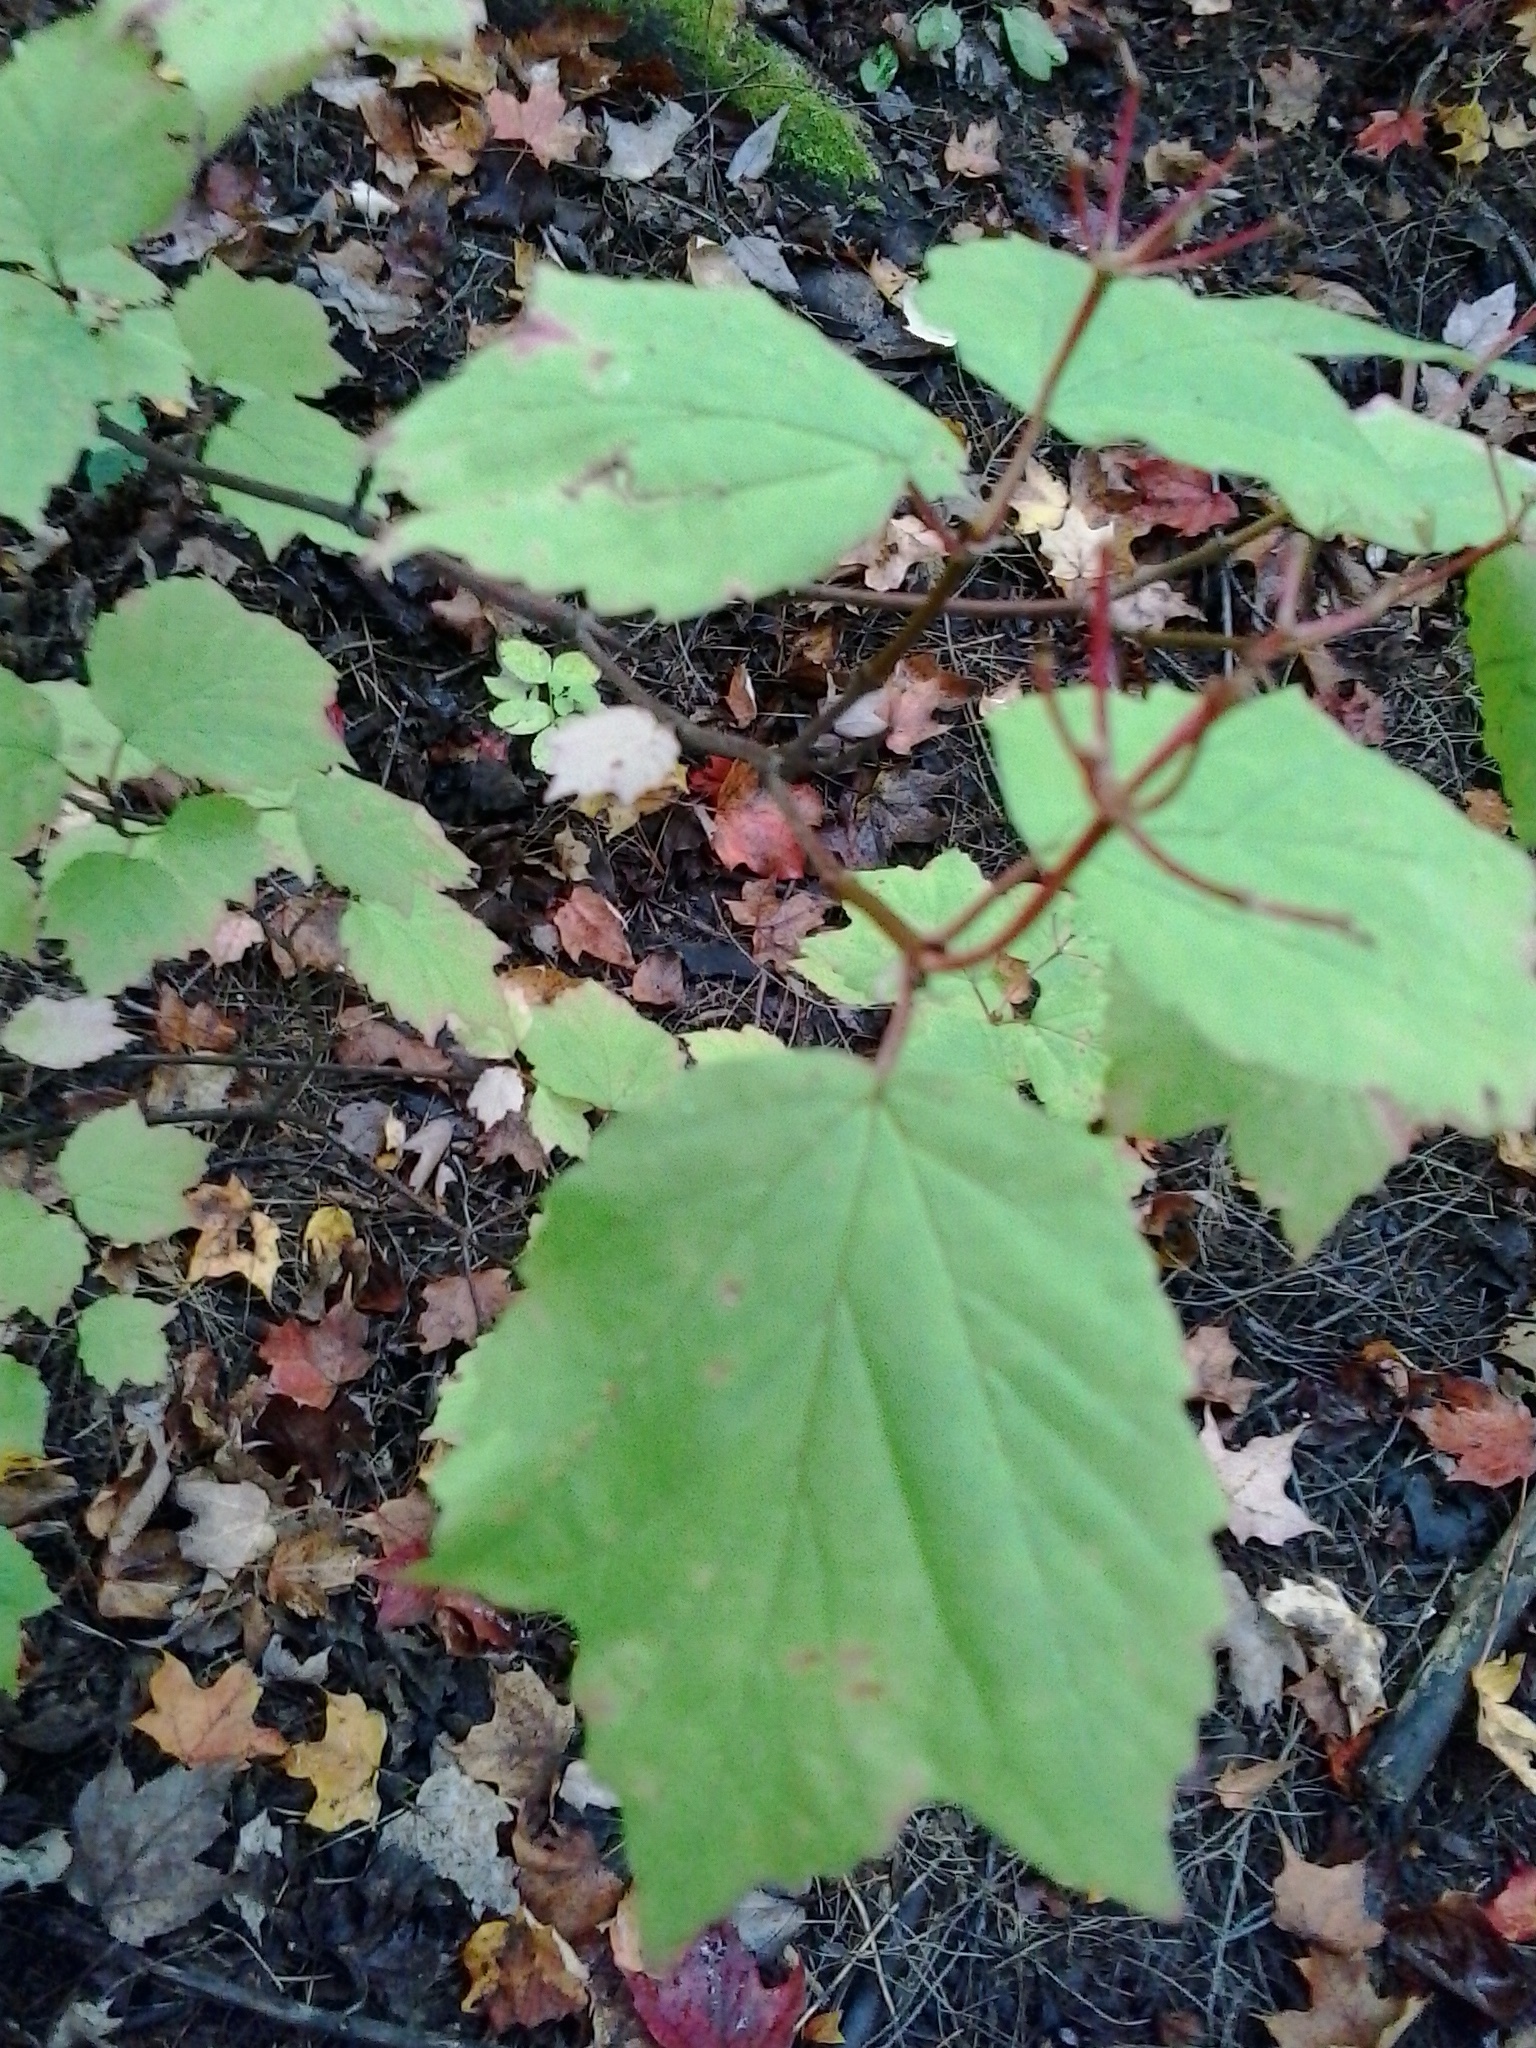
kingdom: Plantae
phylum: Tracheophyta
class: Magnoliopsida
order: Dipsacales
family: Viburnaceae
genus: Viburnum
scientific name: Viburnum acerifolium
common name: Dockmackie
